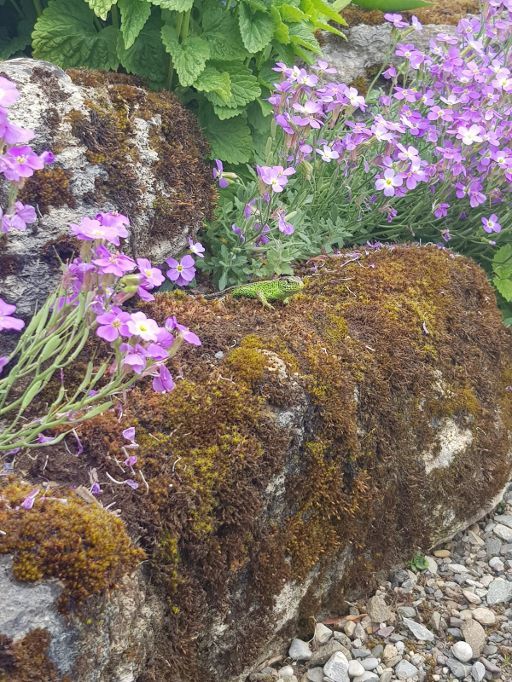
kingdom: Animalia
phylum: Chordata
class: Squamata
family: Lacertidae
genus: Lacerta
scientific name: Lacerta agilis
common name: Sand lizard
